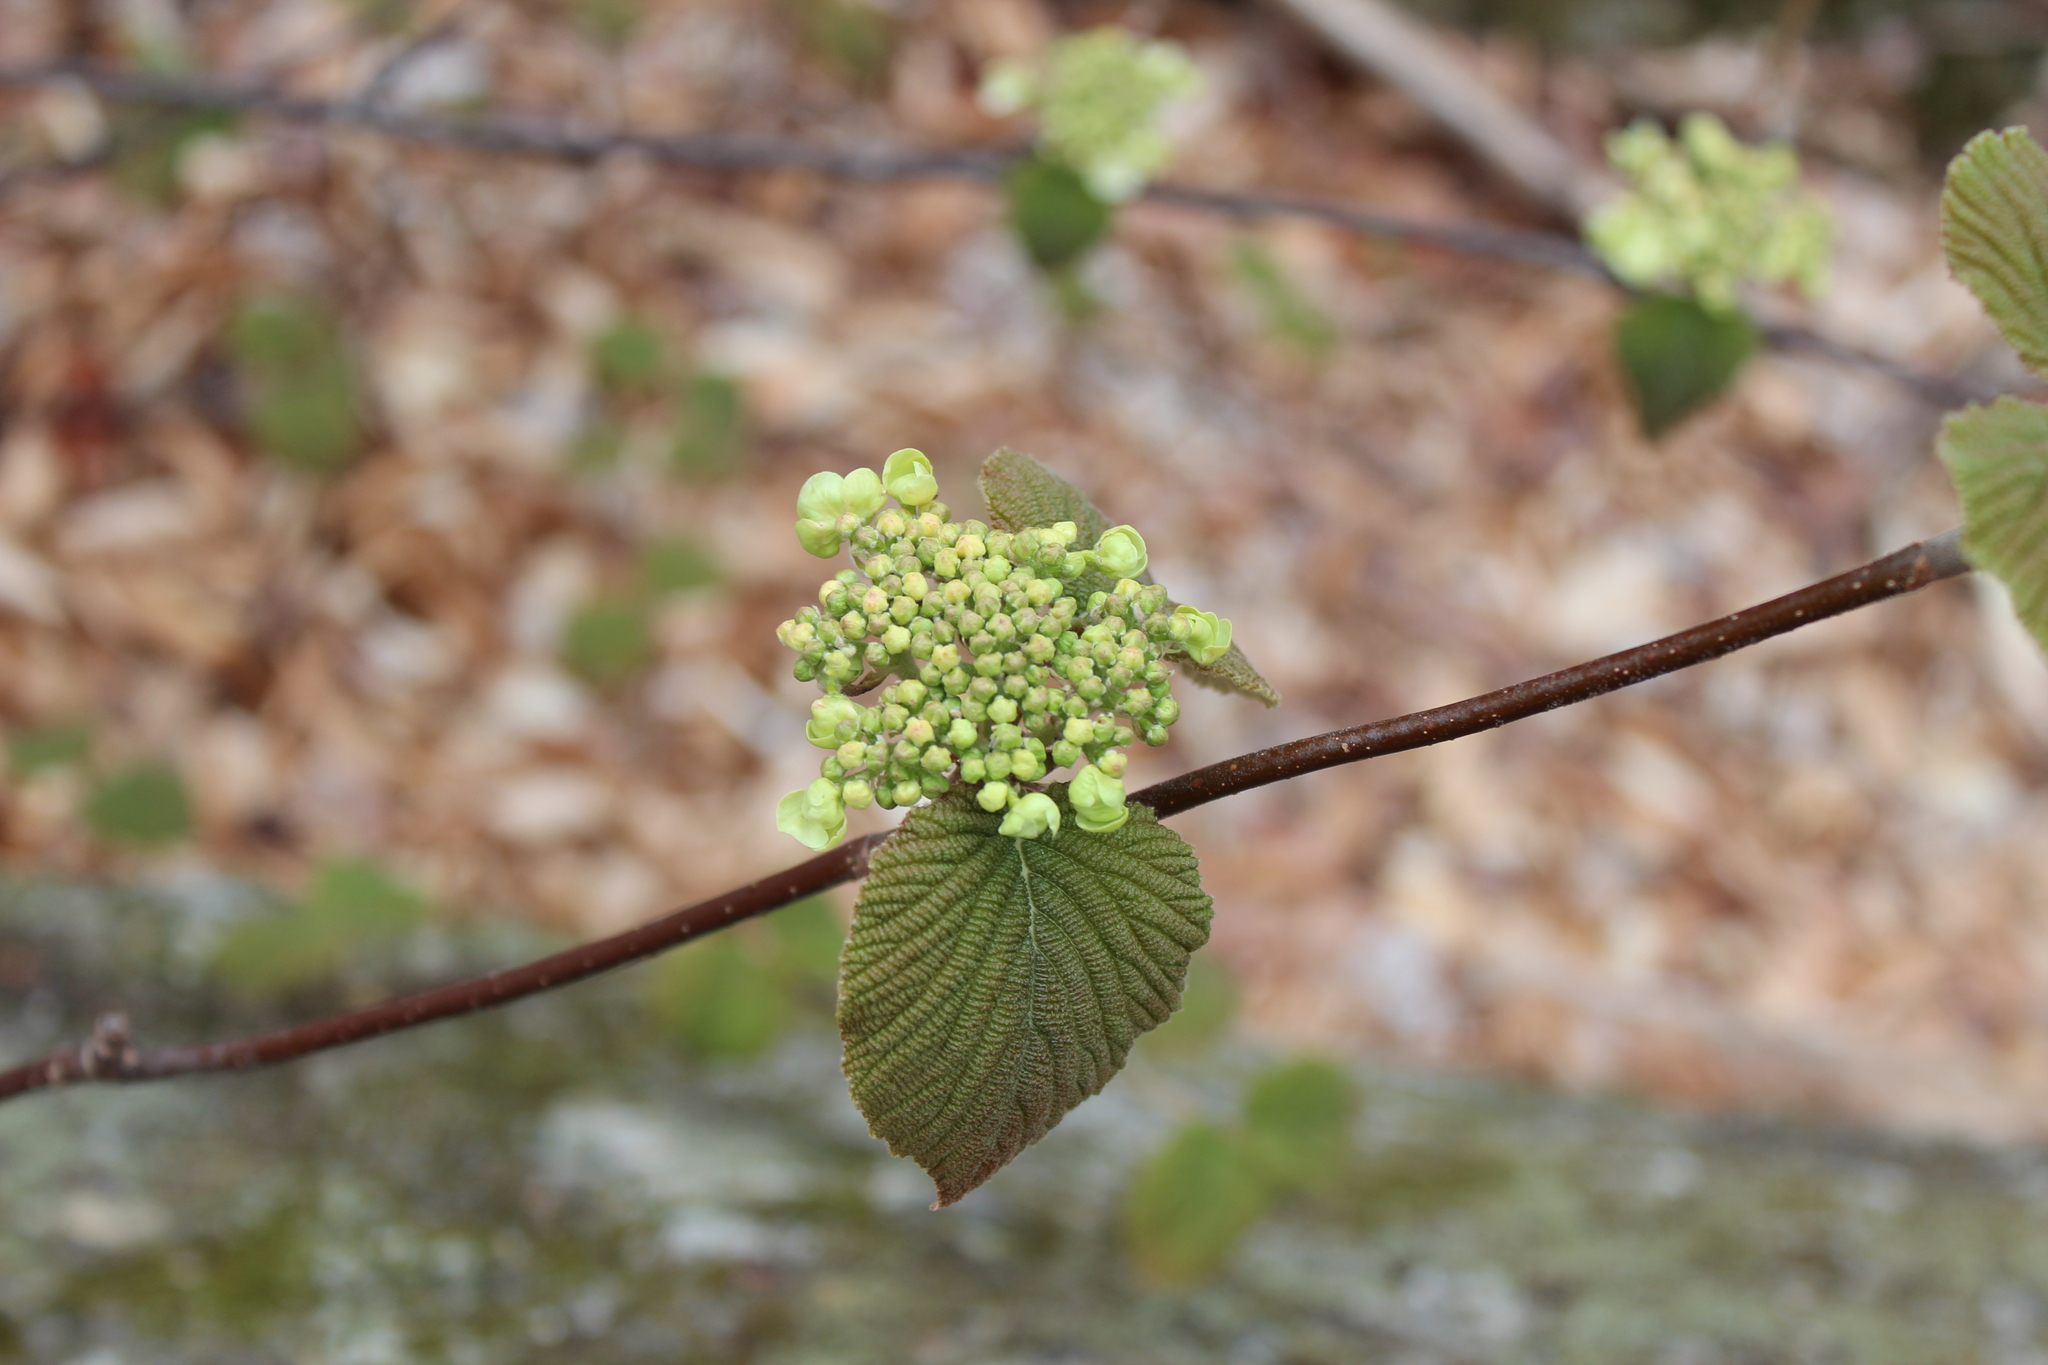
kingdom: Plantae
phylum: Tracheophyta
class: Magnoliopsida
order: Dipsacales
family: Viburnaceae
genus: Viburnum
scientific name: Viburnum lantanoides
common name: Hobblebush
